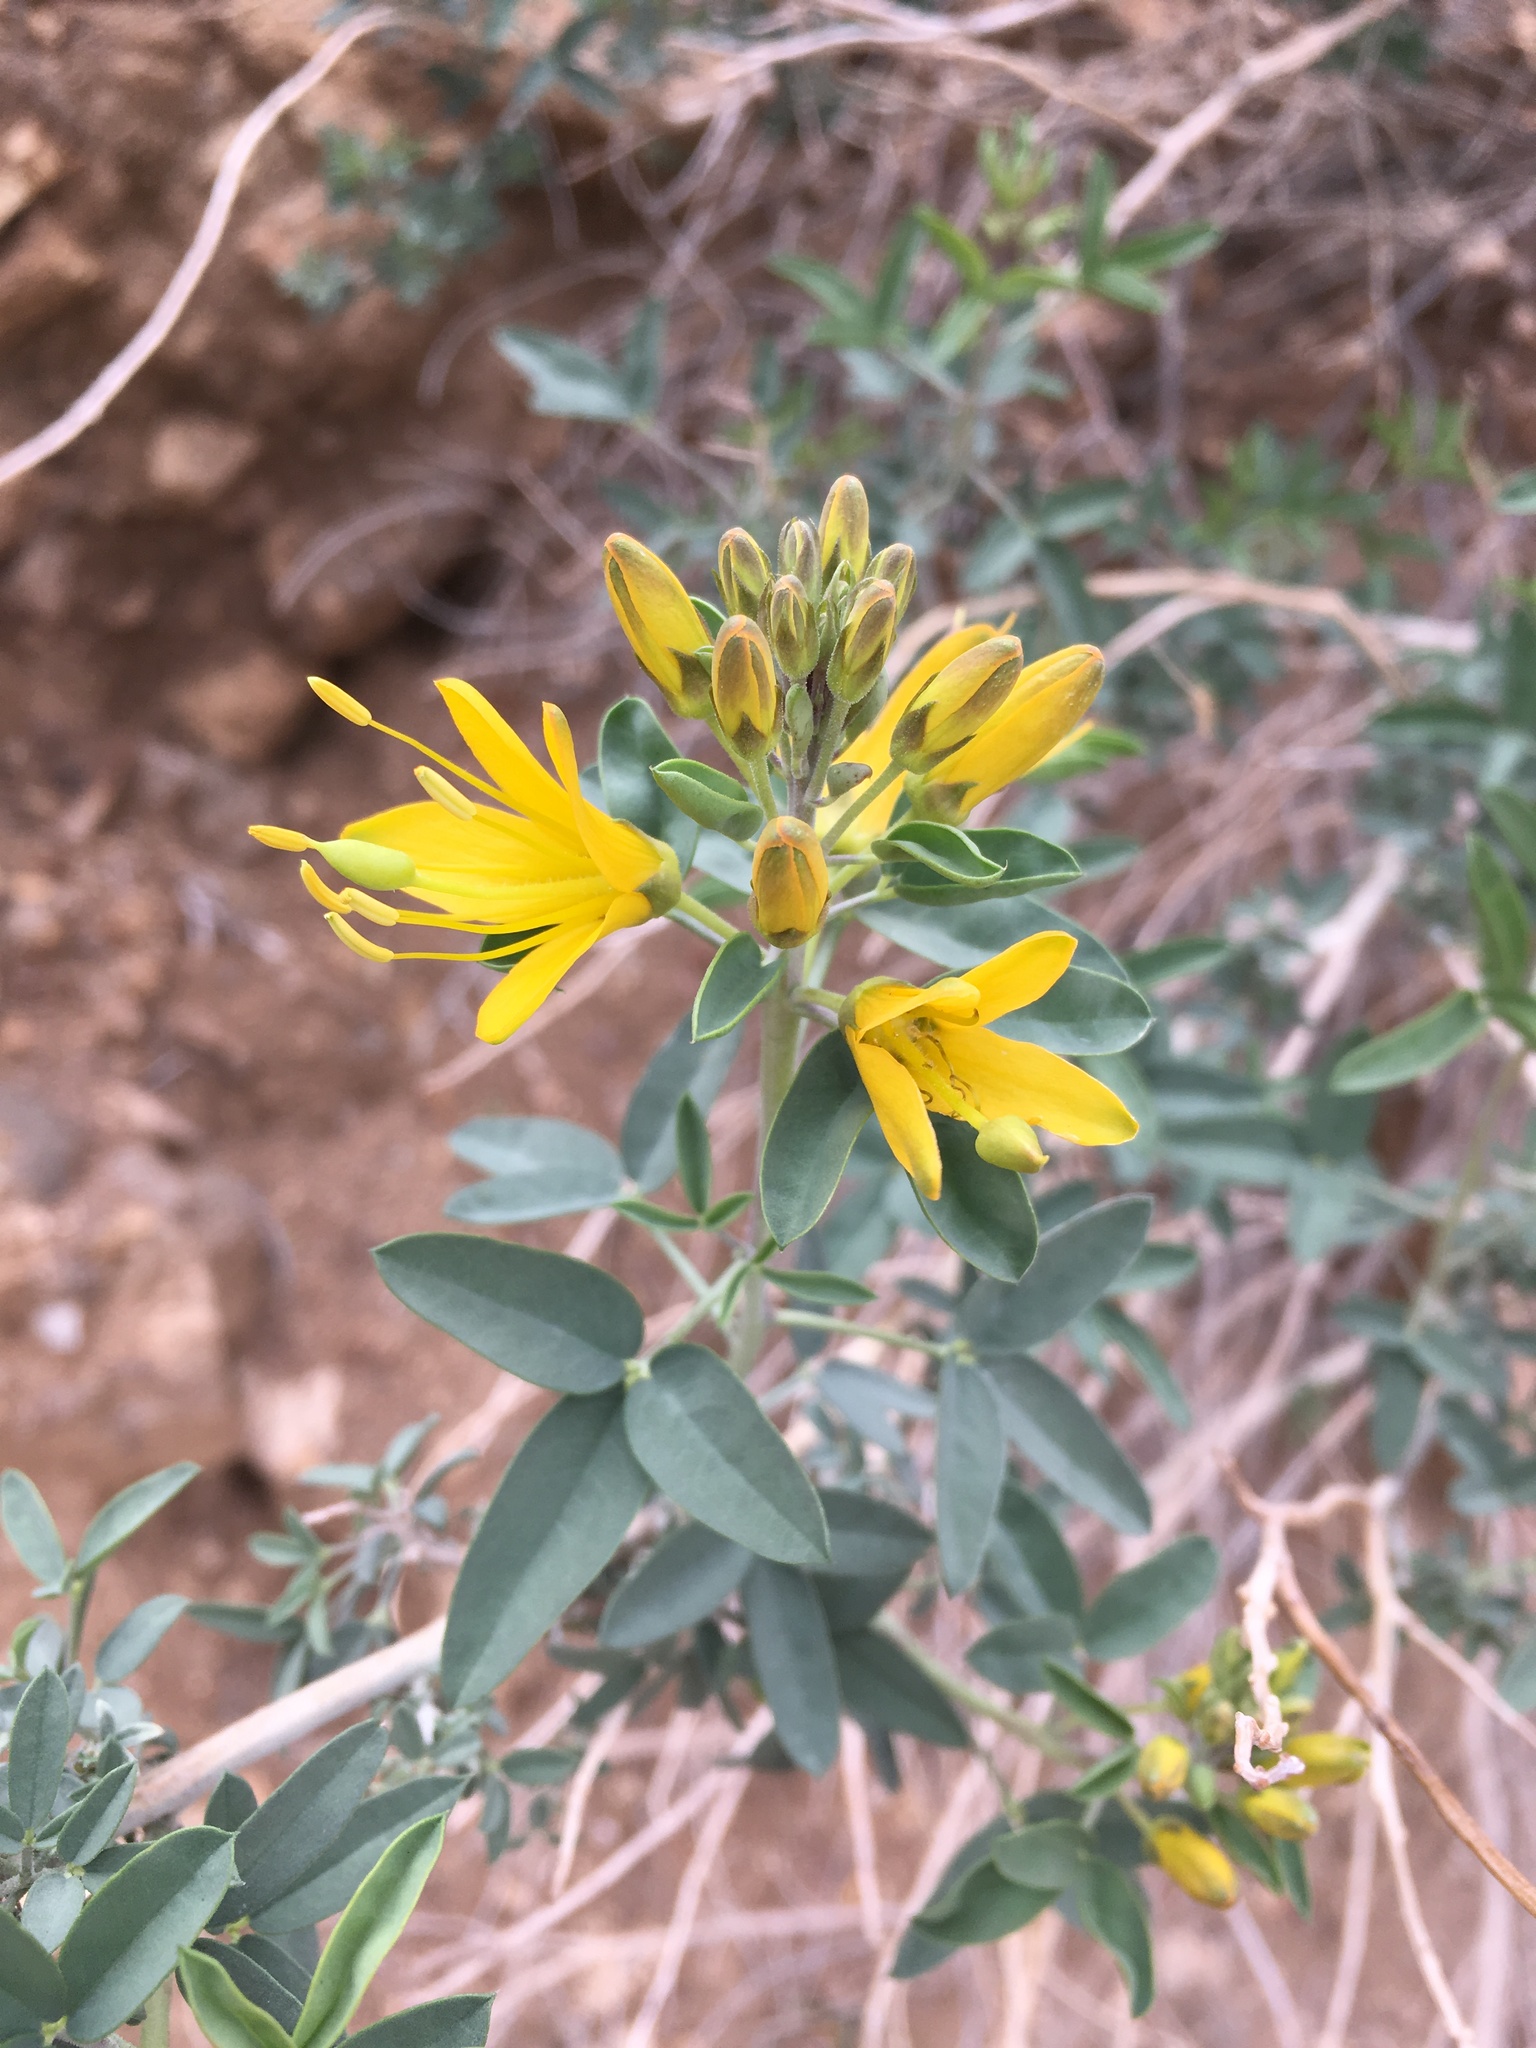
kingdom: Plantae
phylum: Tracheophyta
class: Magnoliopsida
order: Brassicales
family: Cleomaceae
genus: Cleomella
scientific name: Cleomella arborea
